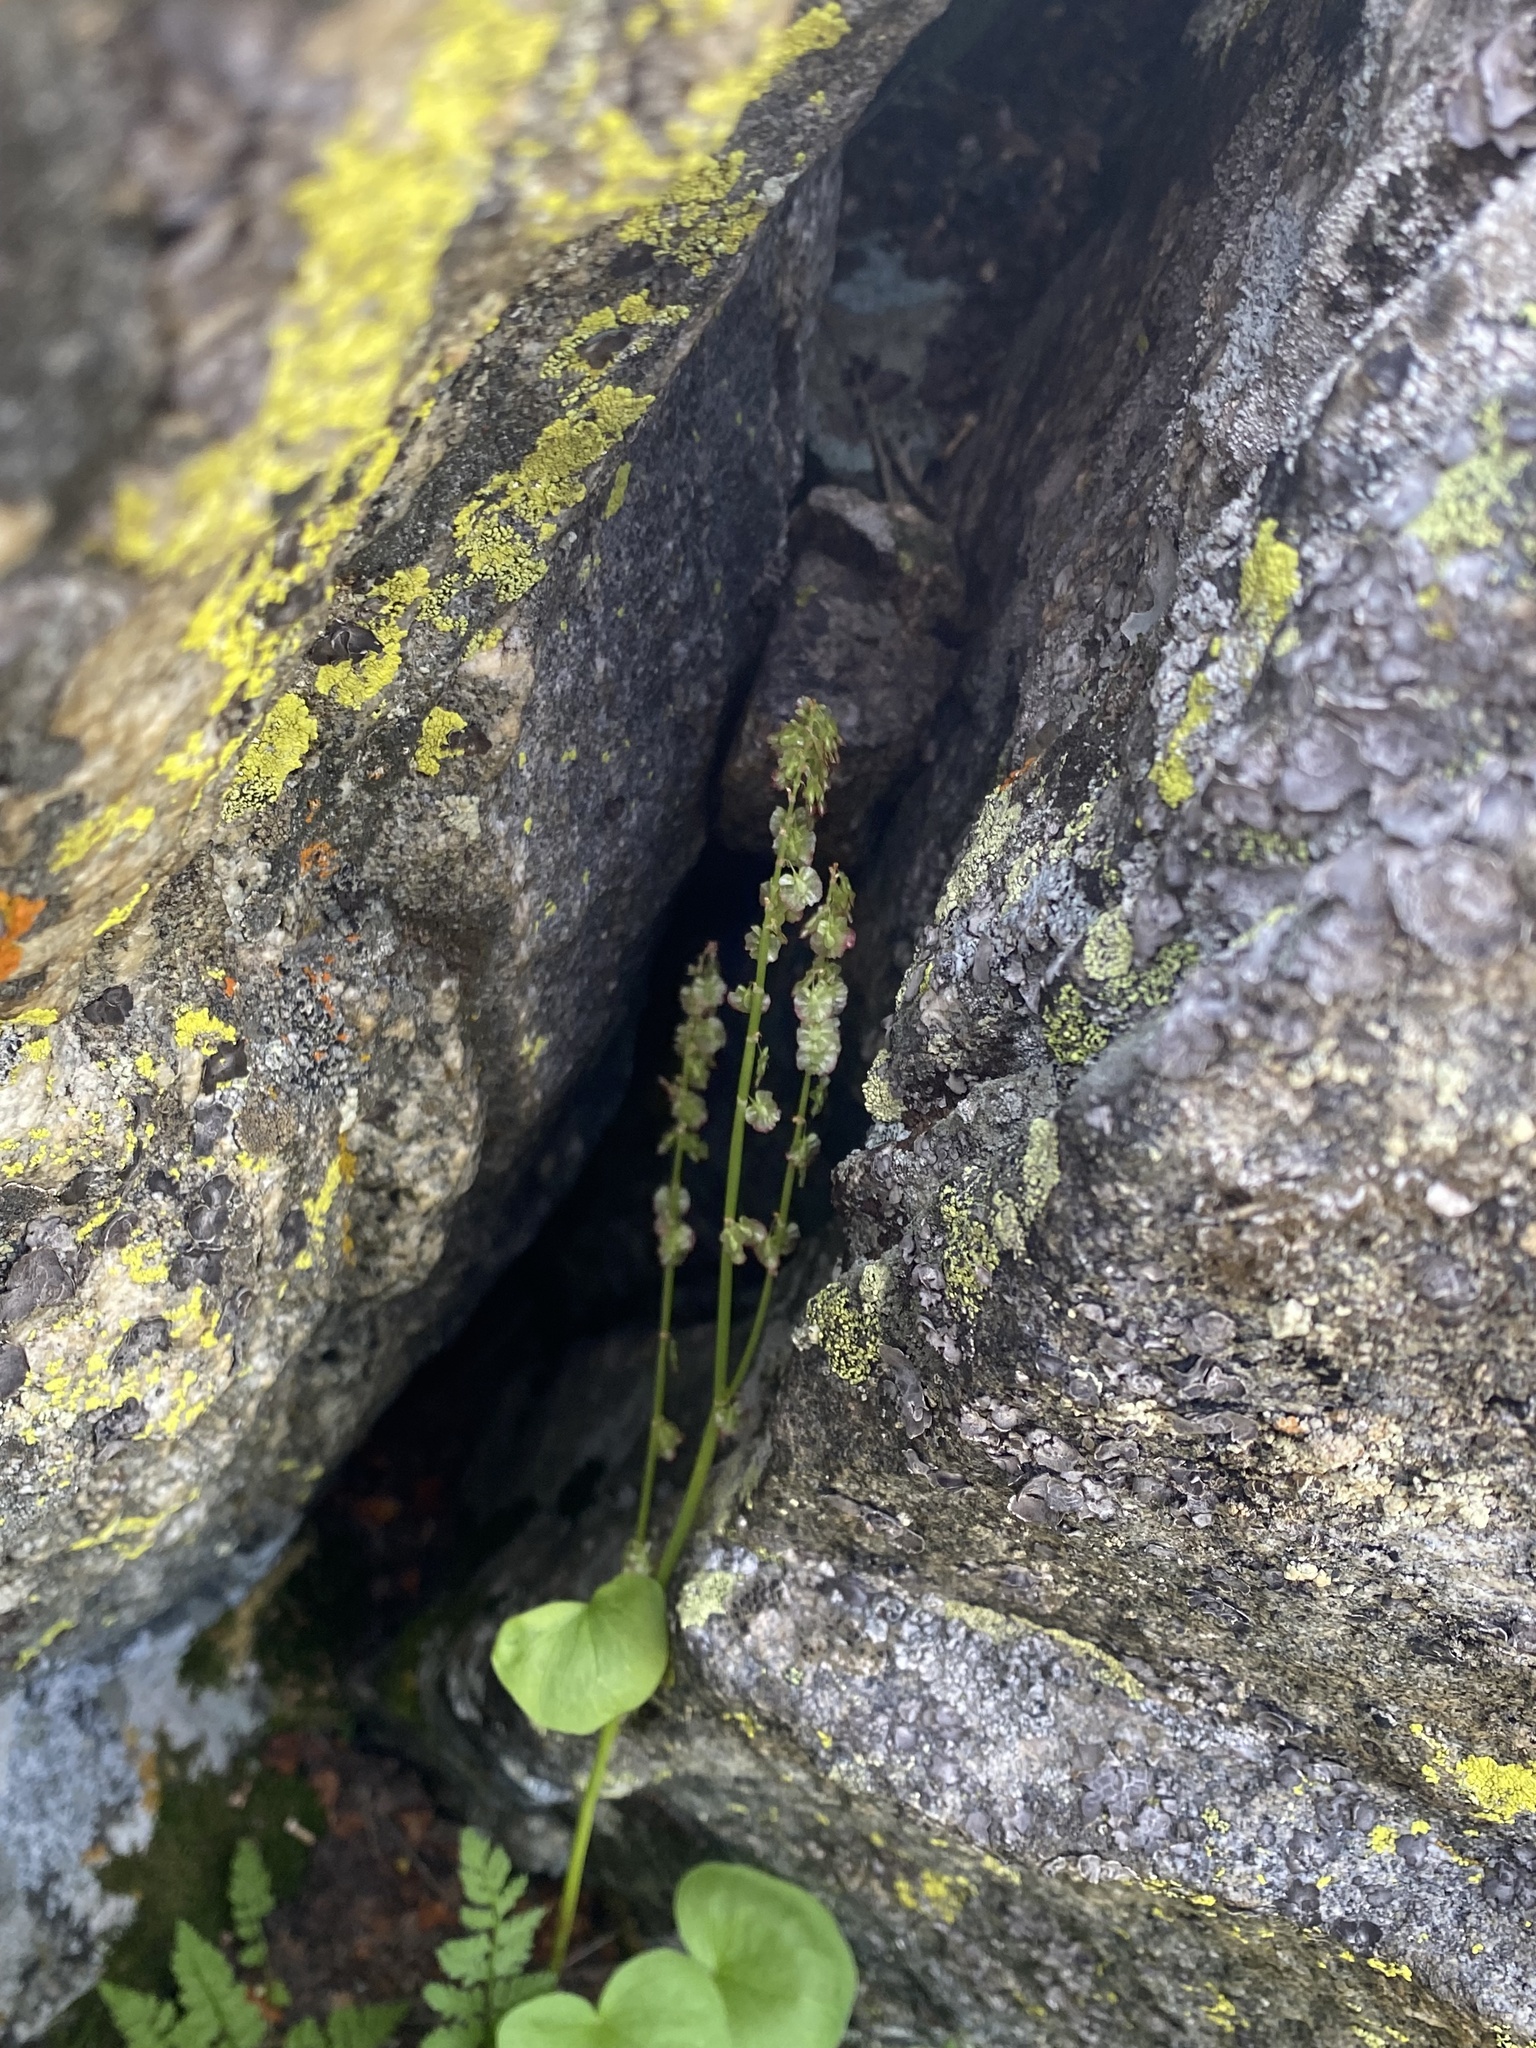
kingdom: Plantae
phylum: Tracheophyta
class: Magnoliopsida
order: Caryophyllales
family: Polygonaceae
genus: Oxyria
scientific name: Oxyria digyna
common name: Alpine mountain-sorrel
